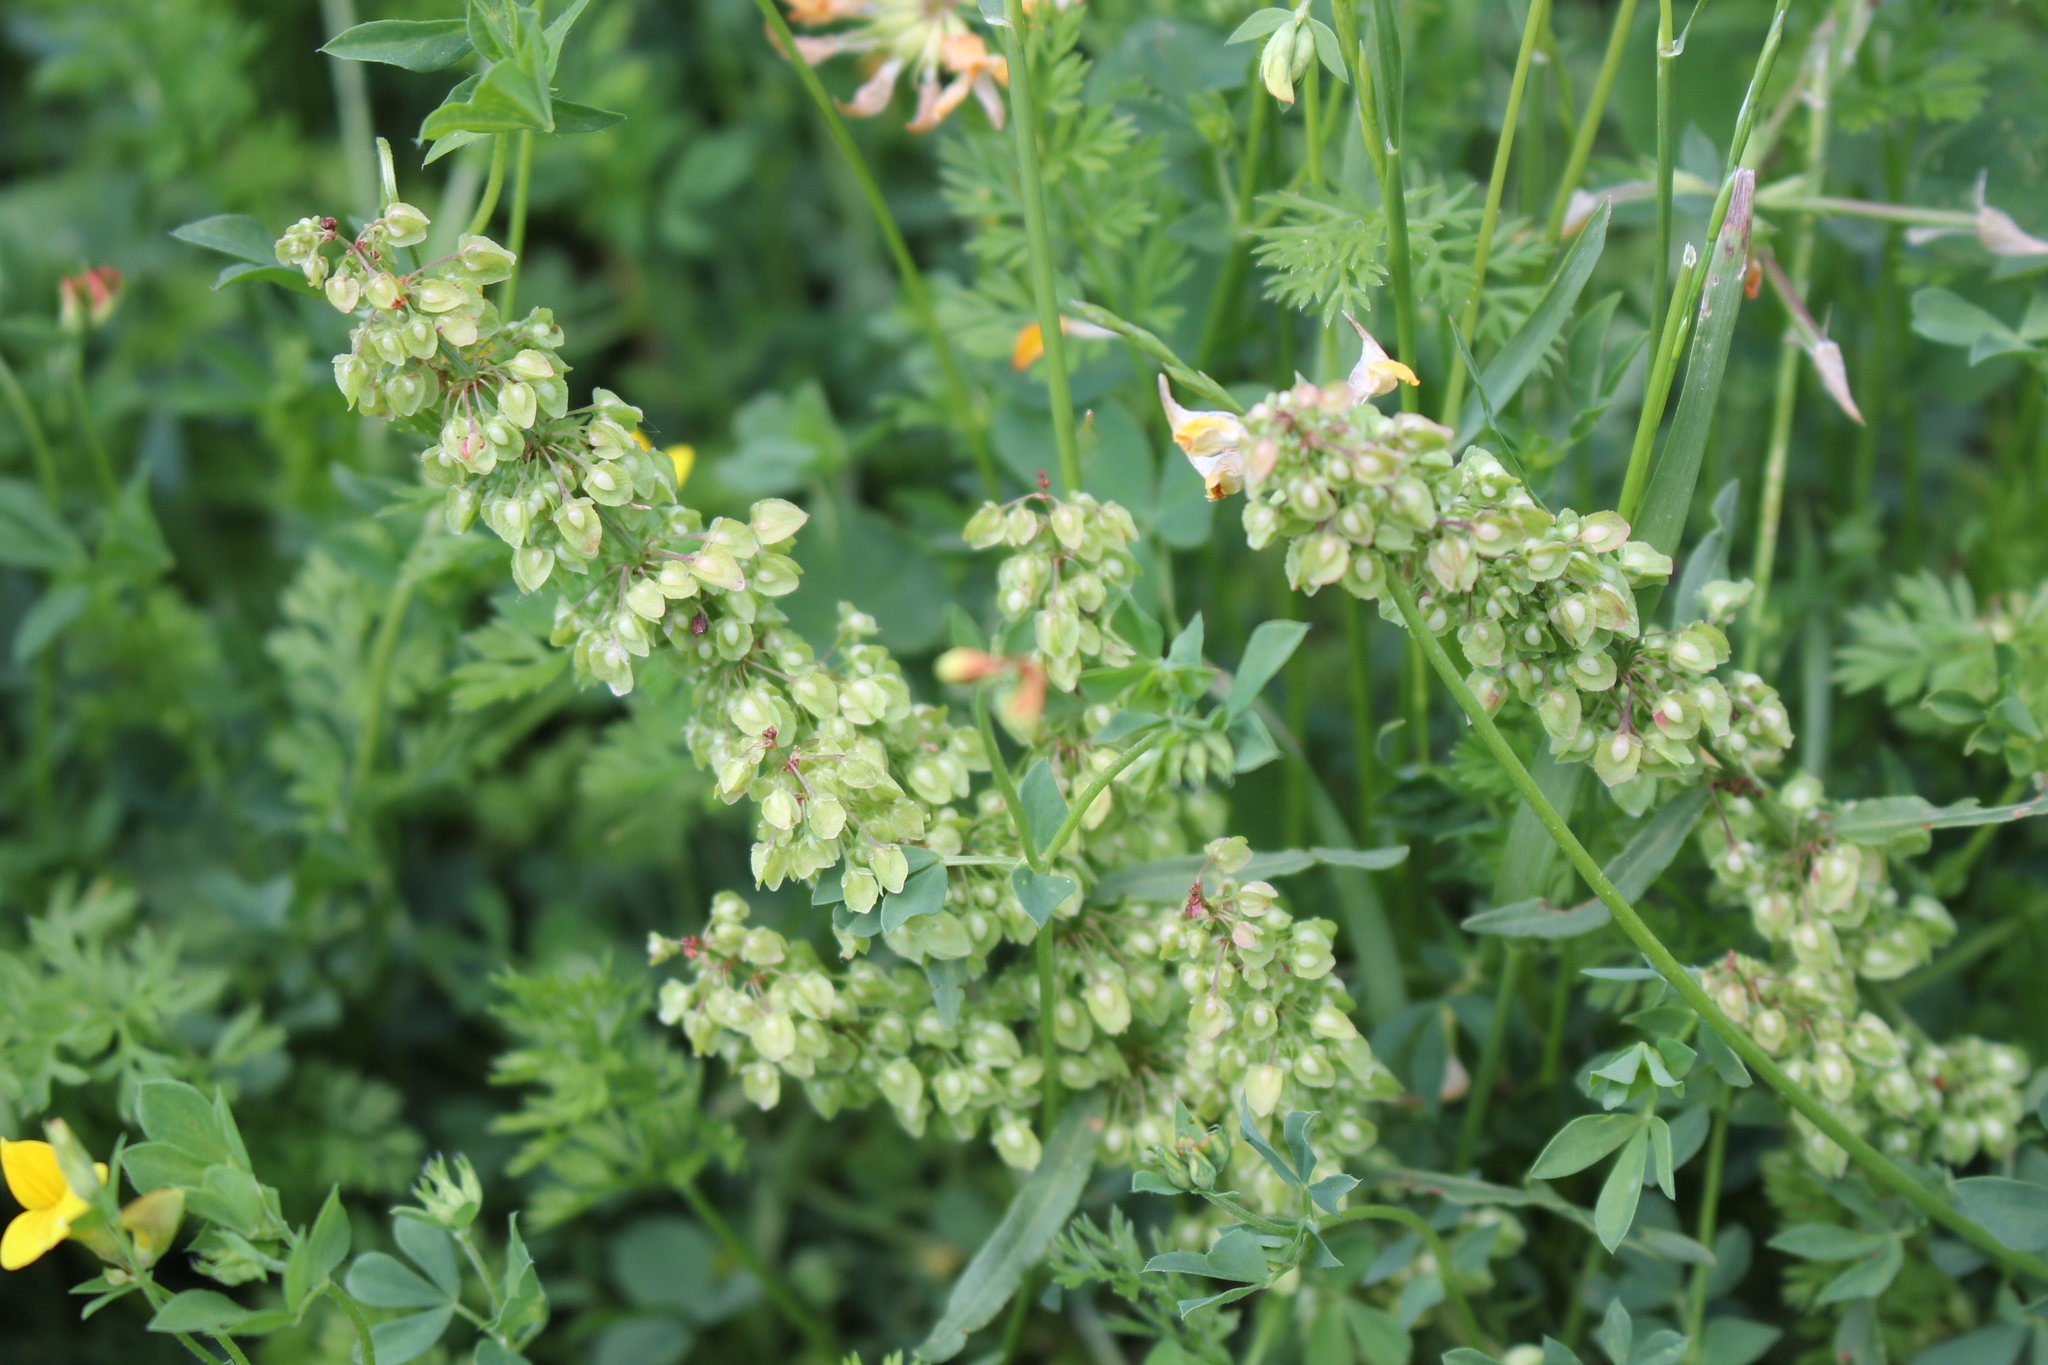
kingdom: Plantae
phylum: Tracheophyta
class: Magnoliopsida
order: Caryophyllales
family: Polygonaceae
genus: Rumex
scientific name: Rumex crispus
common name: Curled dock
